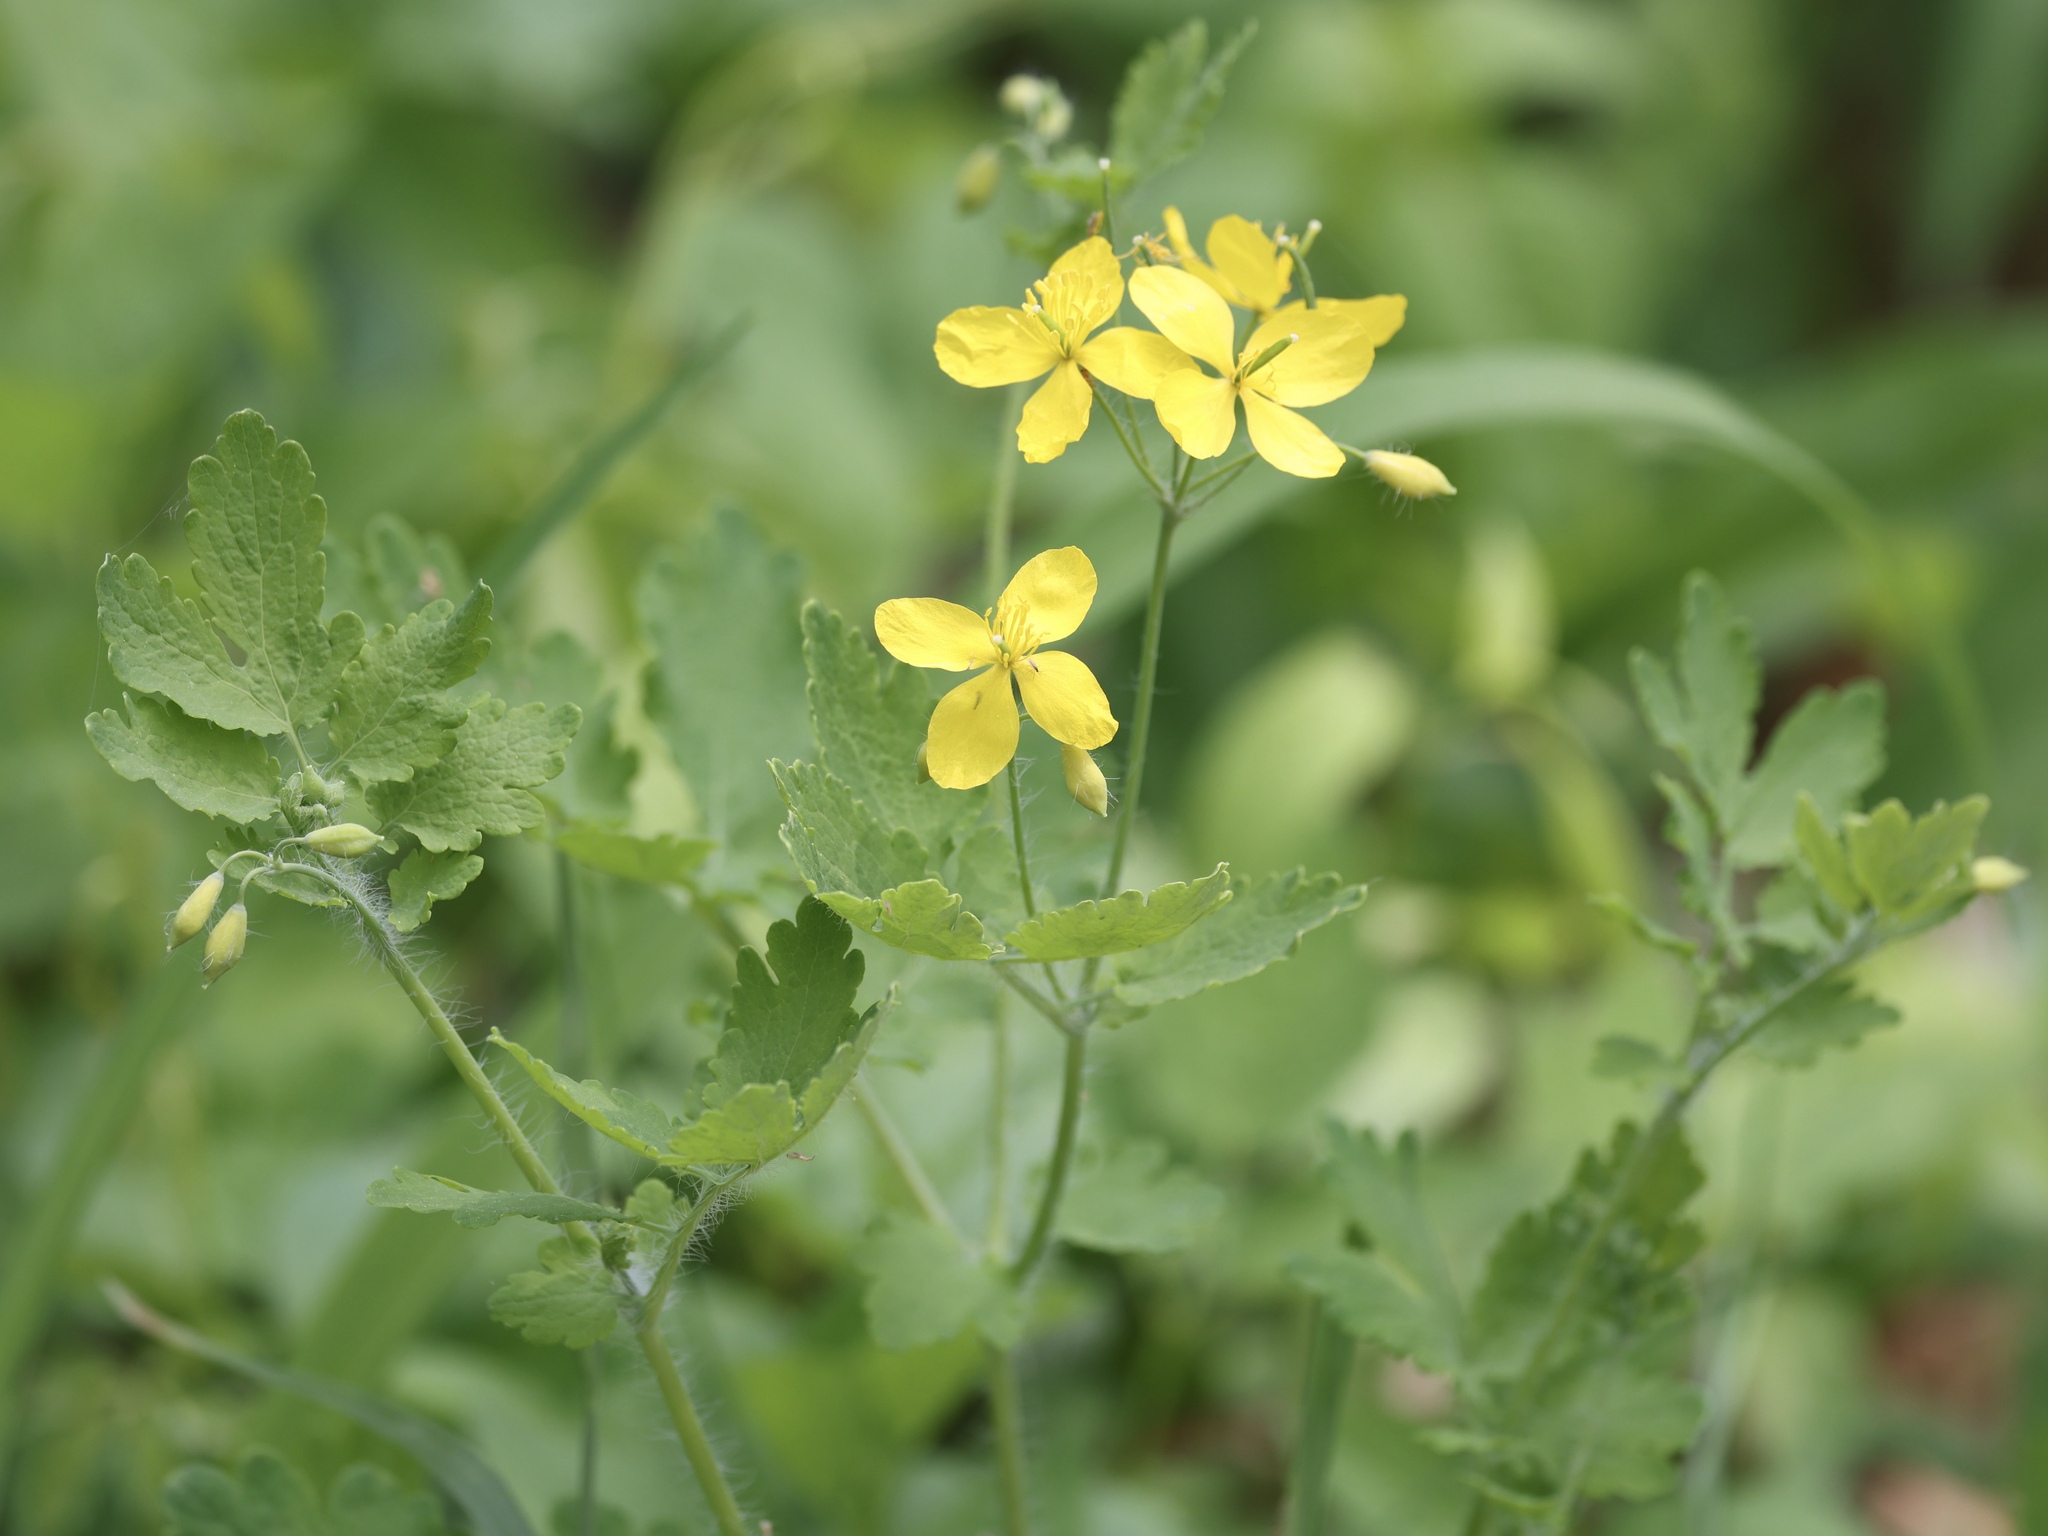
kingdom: Plantae
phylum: Tracheophyta
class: Magnoliopsida
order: Ranunculales
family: Papaveraceae
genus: Chelidonium
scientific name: Chelidonium majus
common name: Greater celandine
